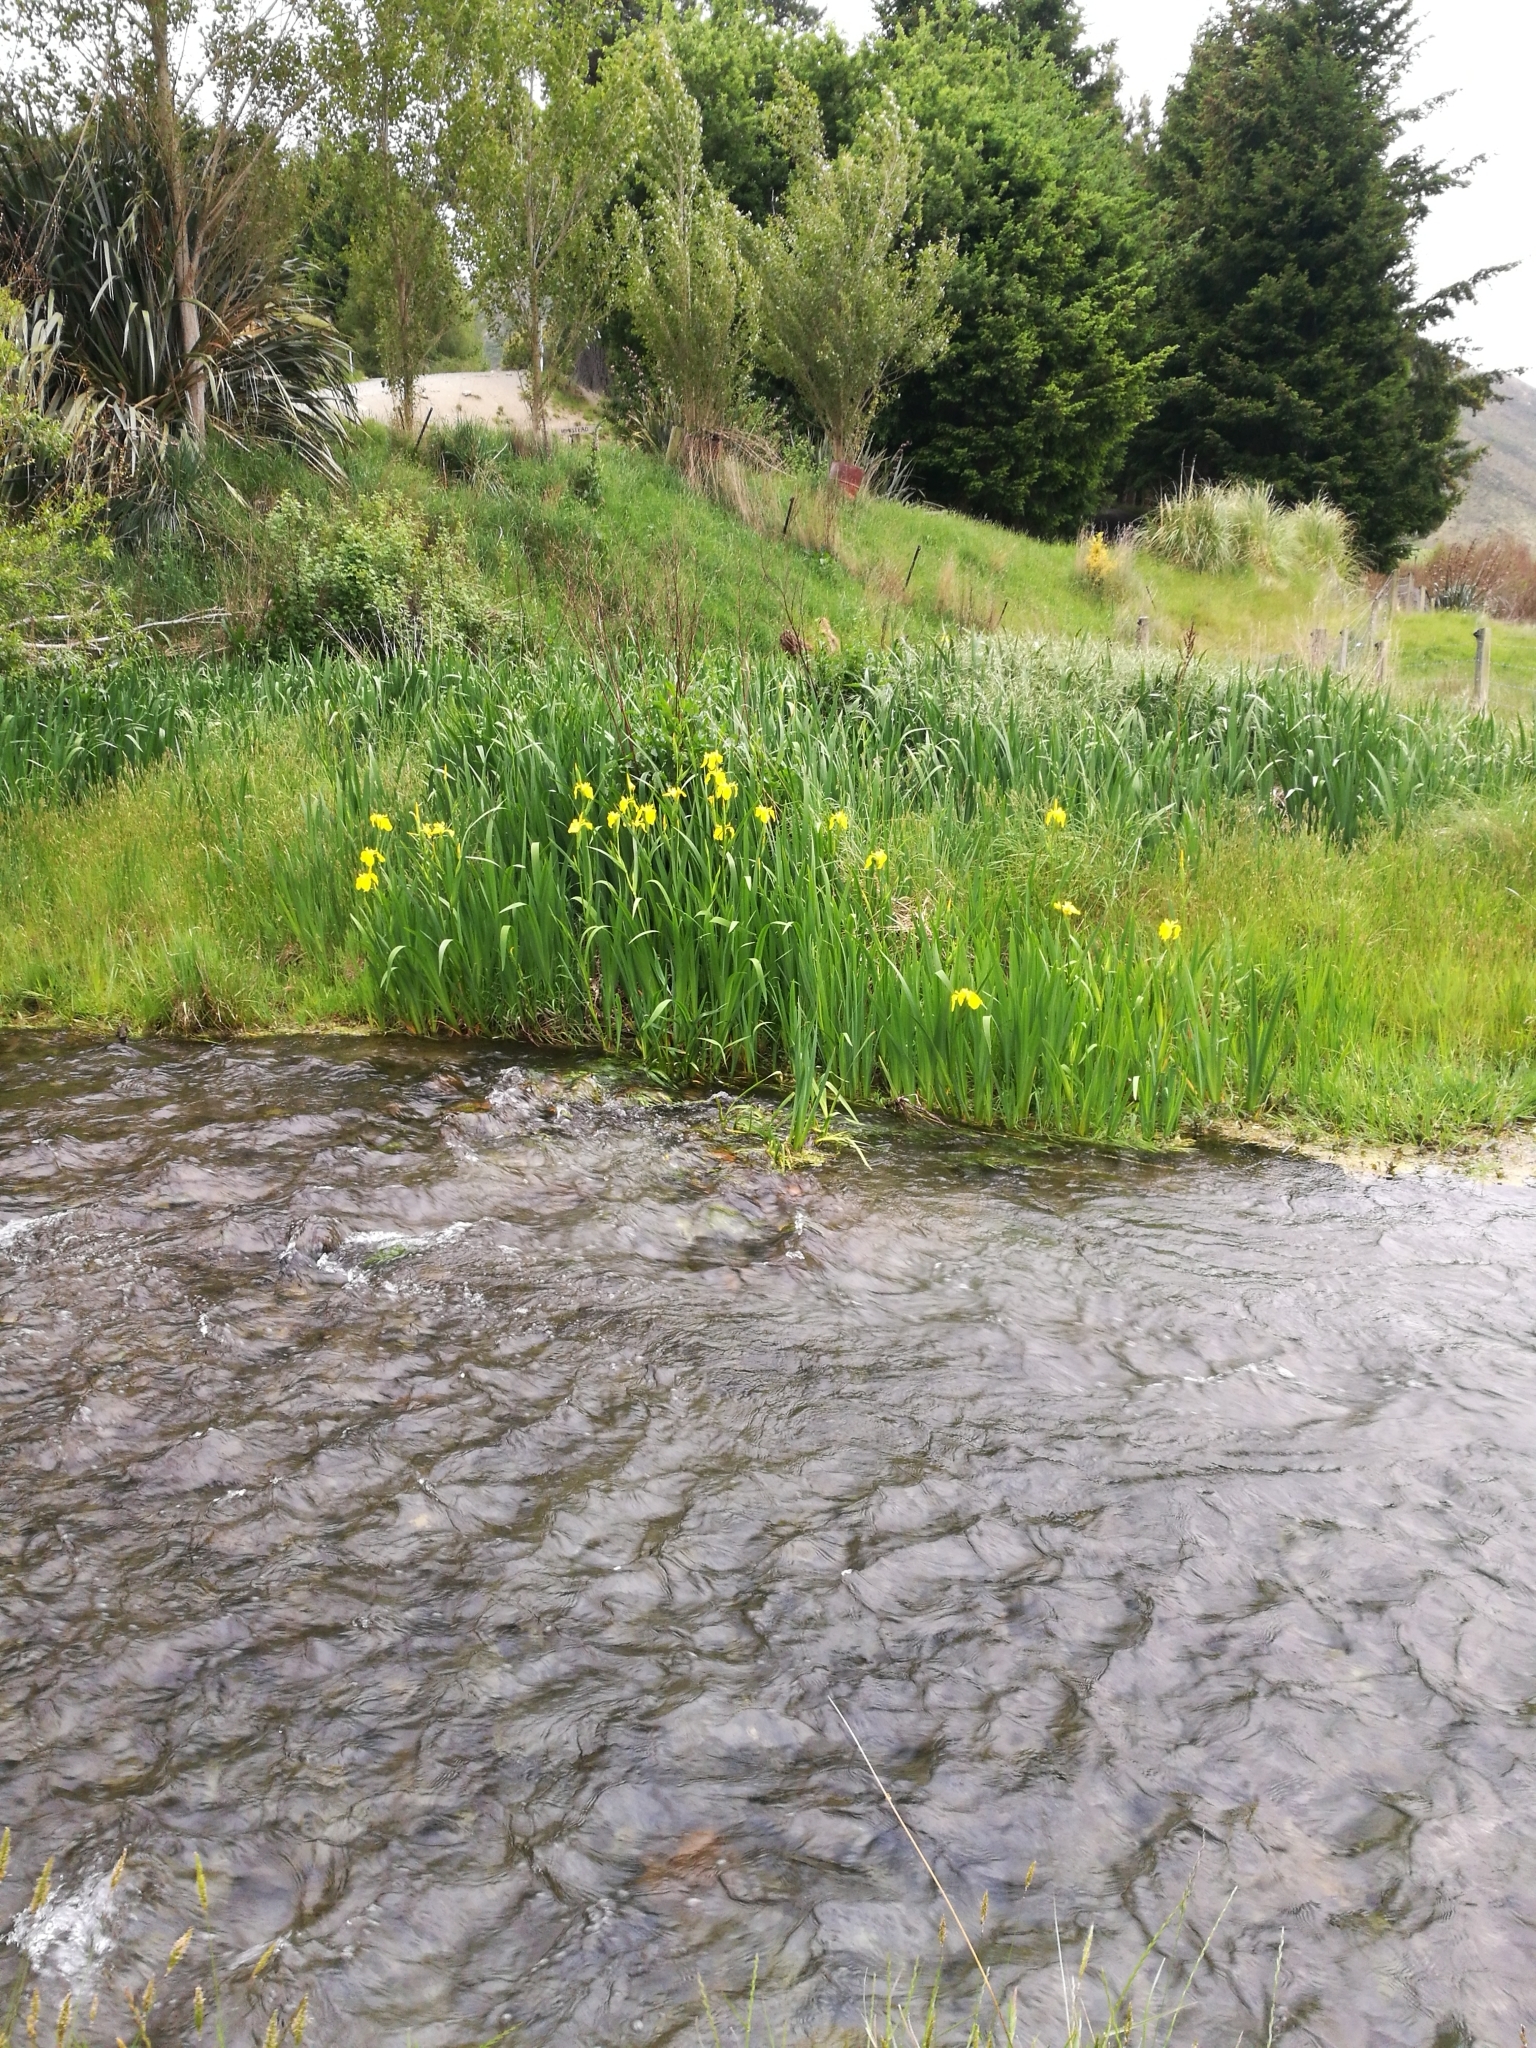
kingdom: Plantae
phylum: Tracheophyta
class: Liliopsida
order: Asparagales
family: Iridaceae
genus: Iris
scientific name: Iris pseudacorus
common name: Yellow flag
